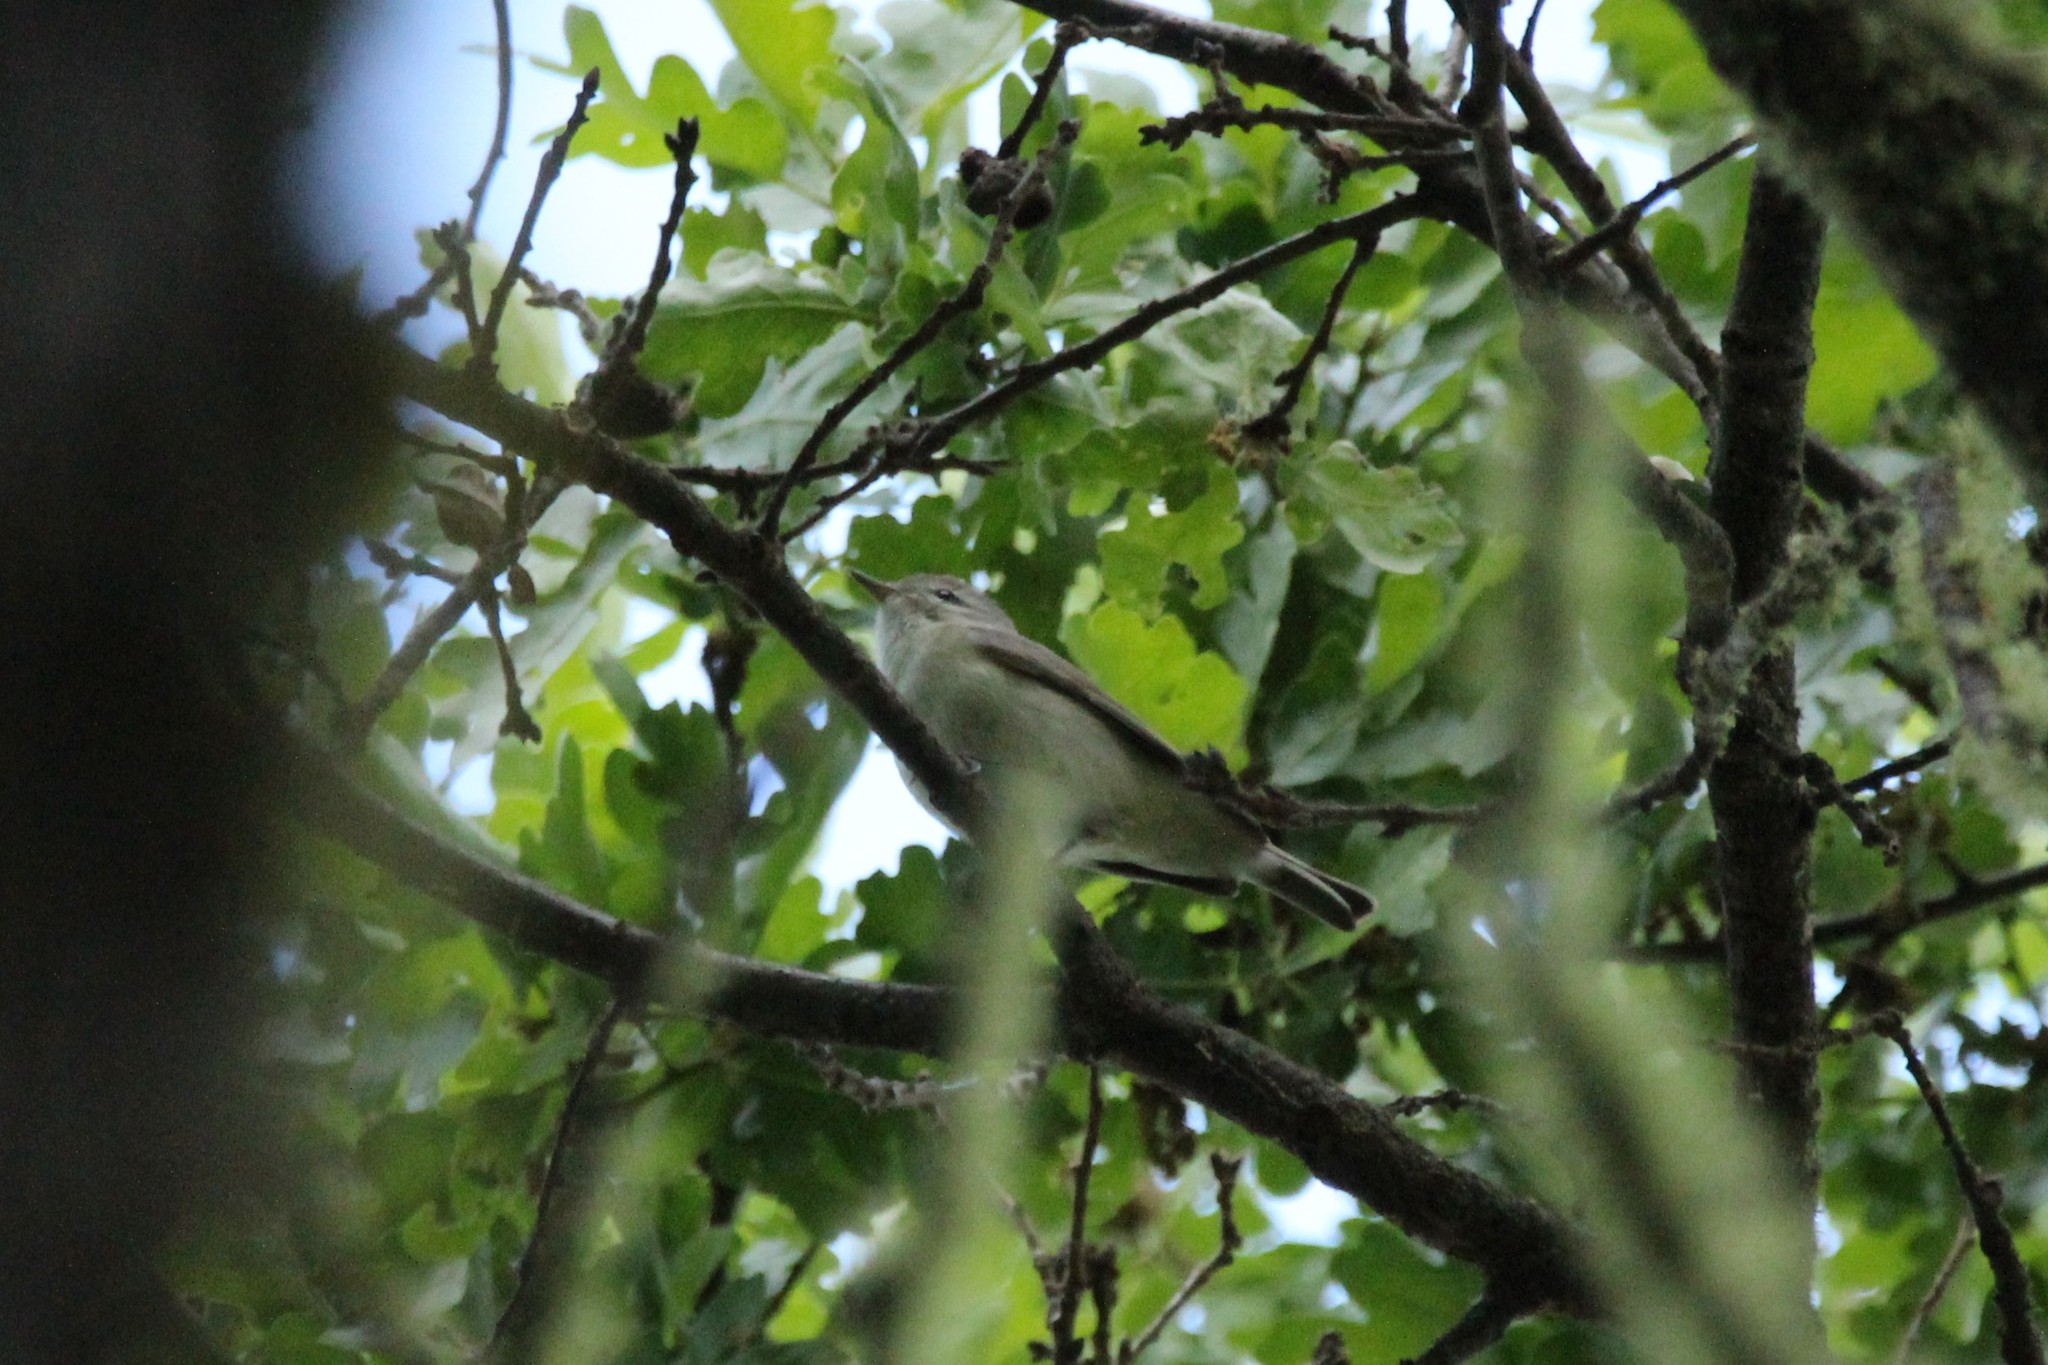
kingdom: Animalia
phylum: Chordata
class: Aves
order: Passeriformes
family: Vireonidae
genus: Vireo
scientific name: Vireo gilvus
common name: Warbling vireo
